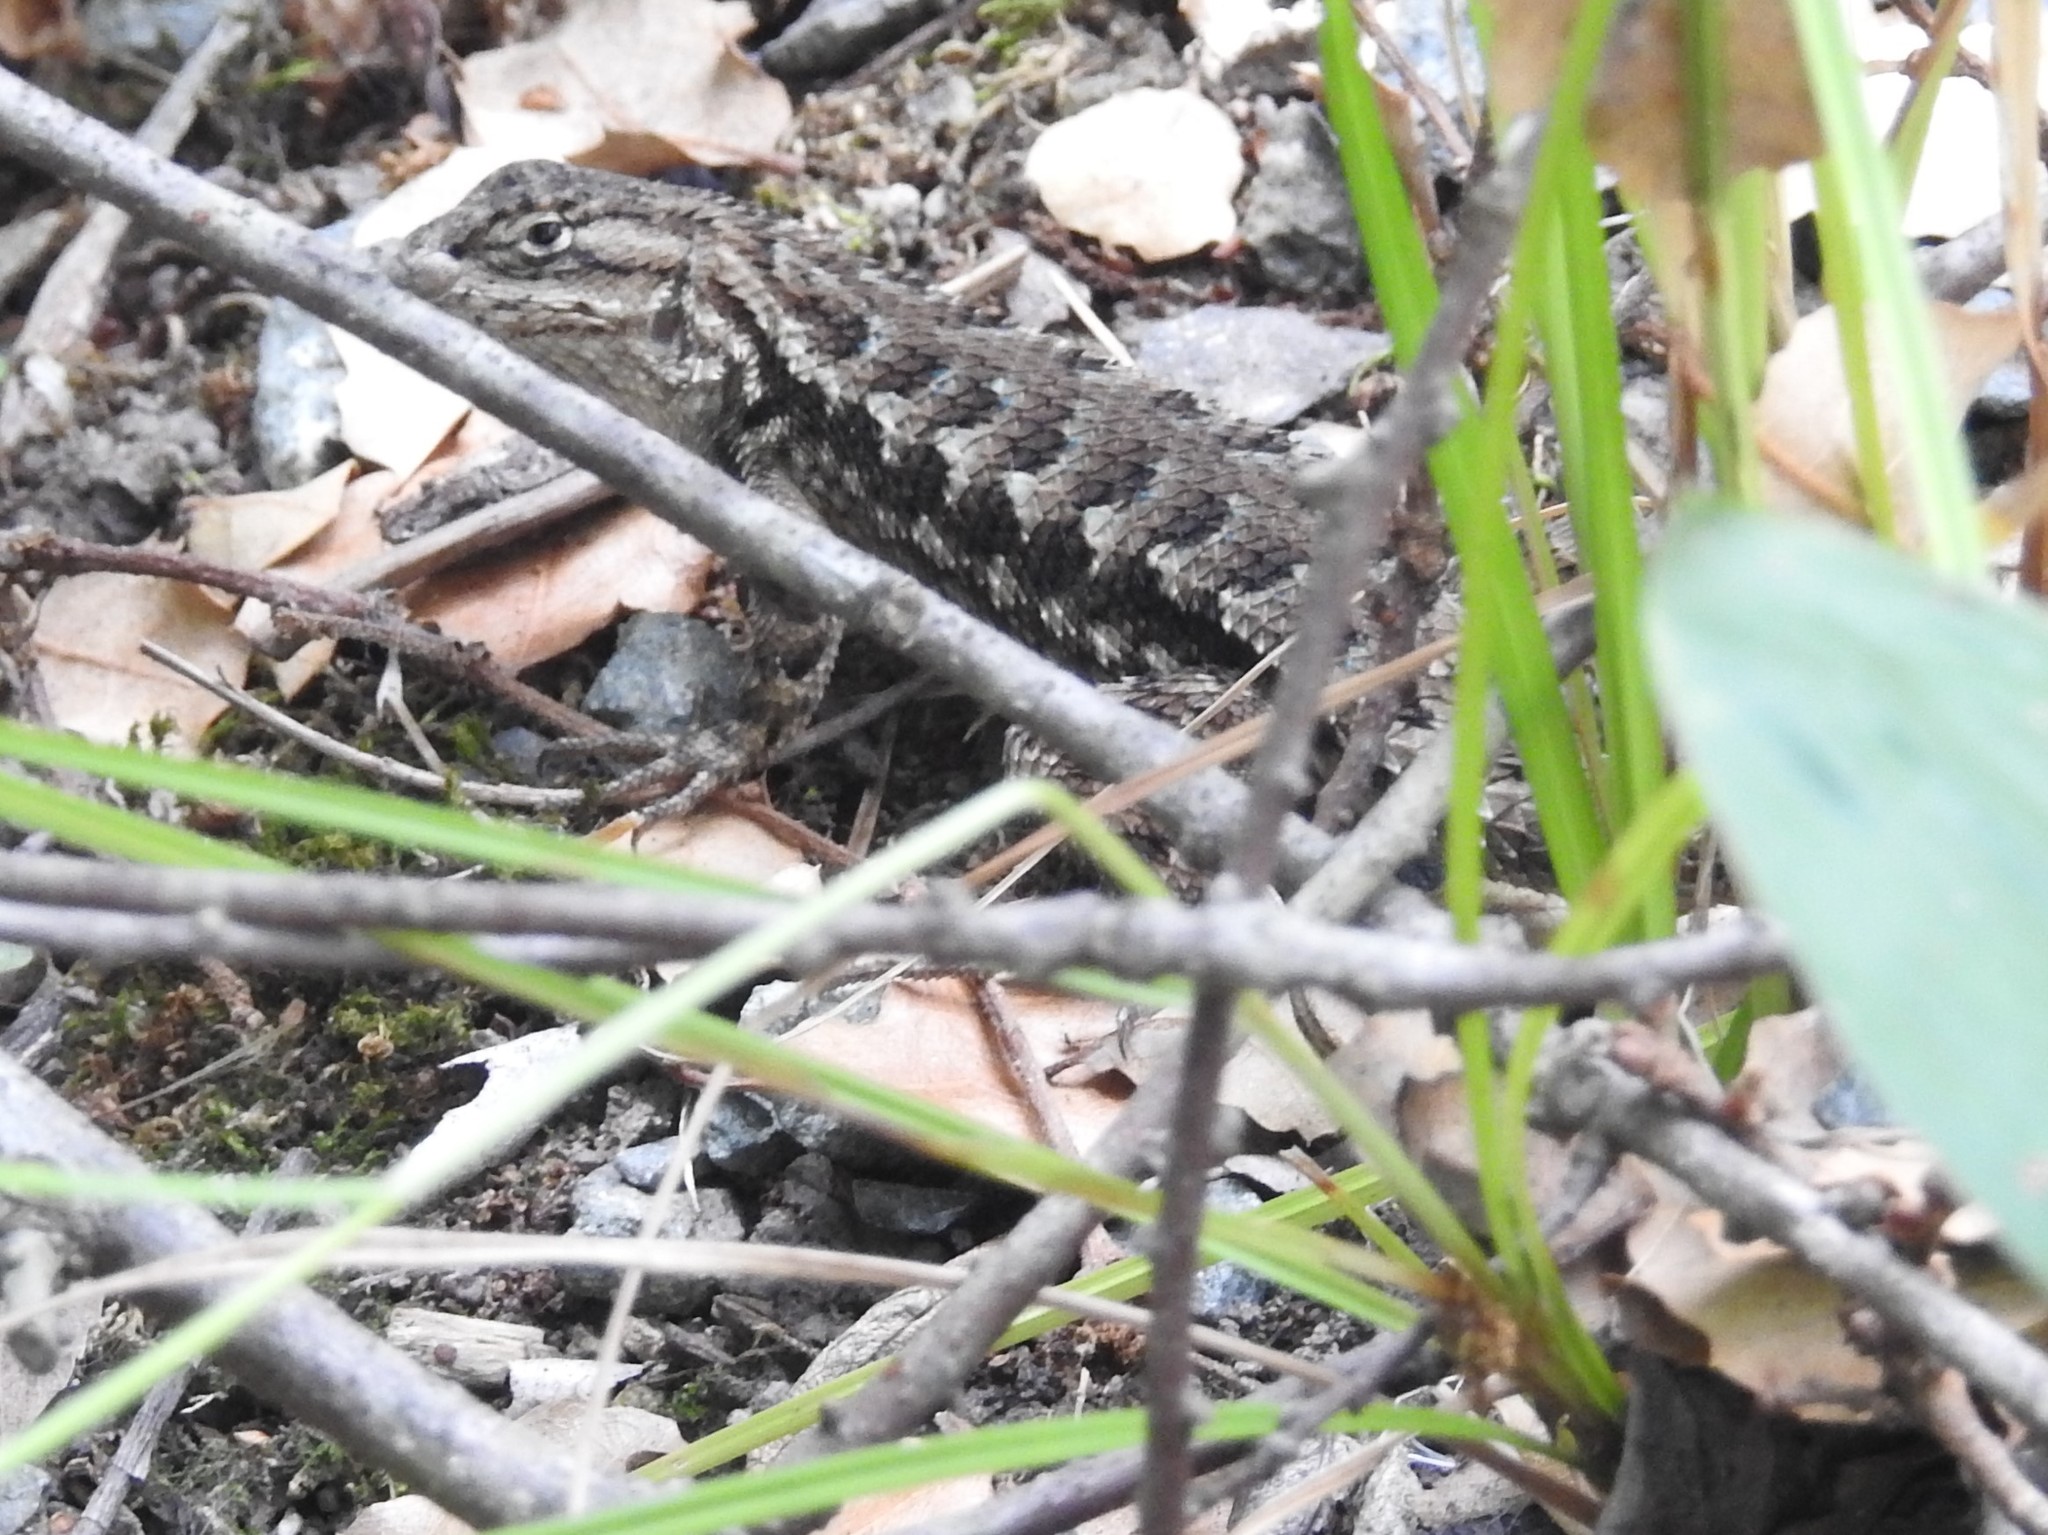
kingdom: Animalia
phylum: Chordata
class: Squamata
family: Phrynosomatidae
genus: Sceloporus
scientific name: Sceloporus occidentalis
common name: Western fence lizard
